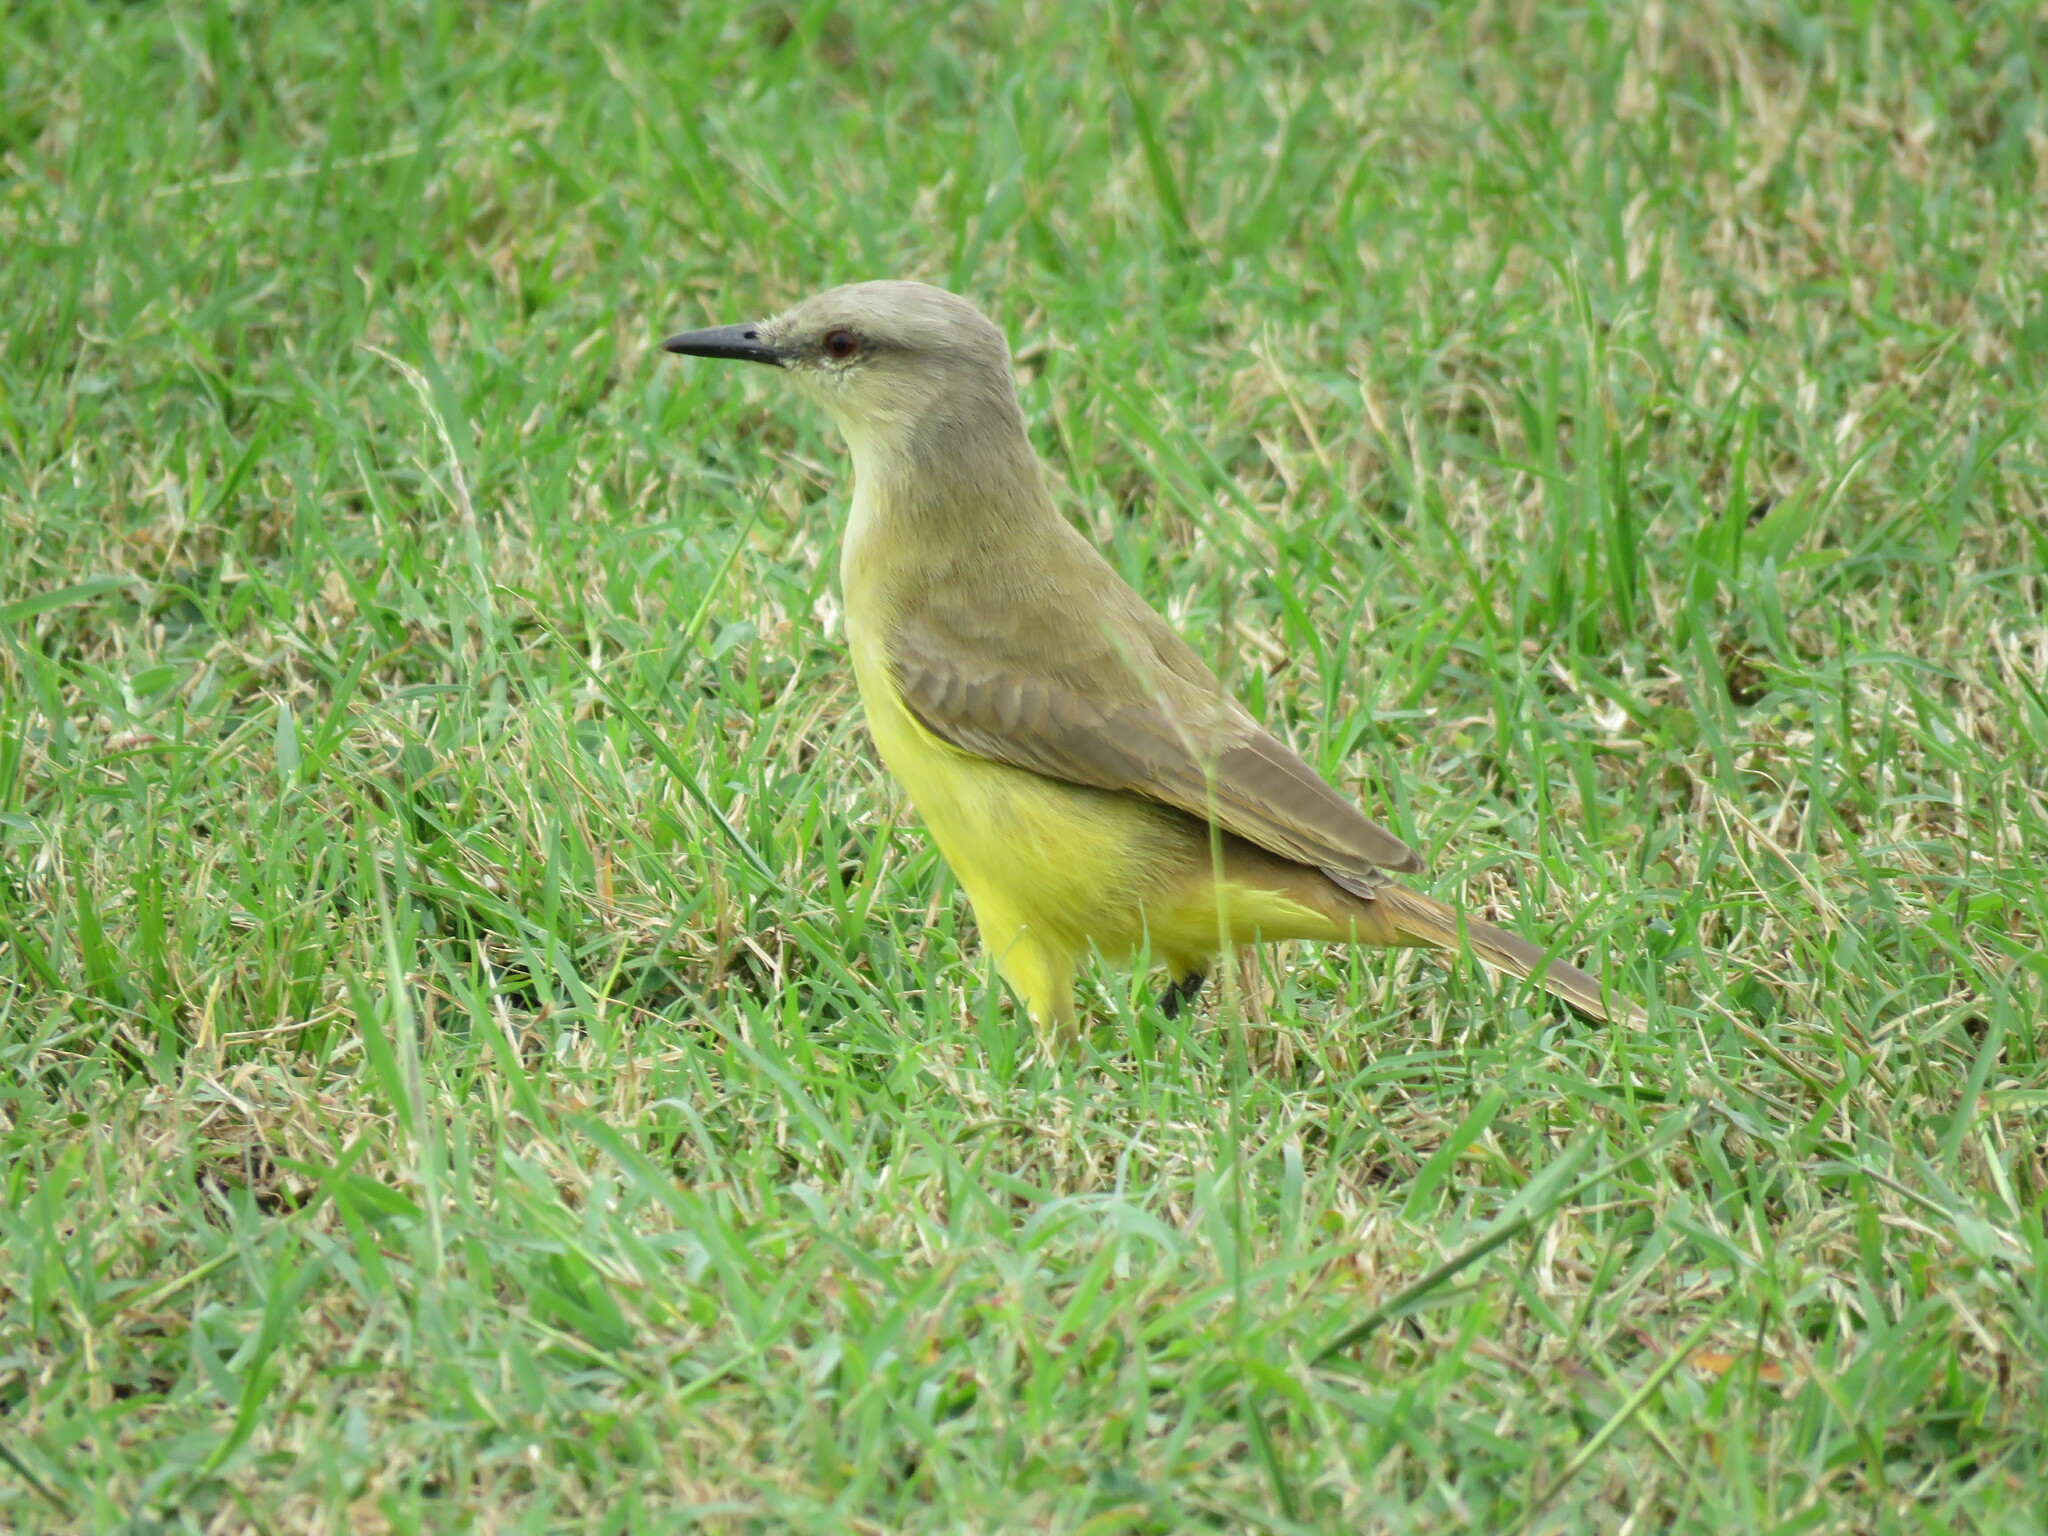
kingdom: Animalia
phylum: Chordata
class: Aves
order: Passeriformes
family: Tyrannidae
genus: Machetornis
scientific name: Machetornis rixosa
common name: Cattle tyrant
